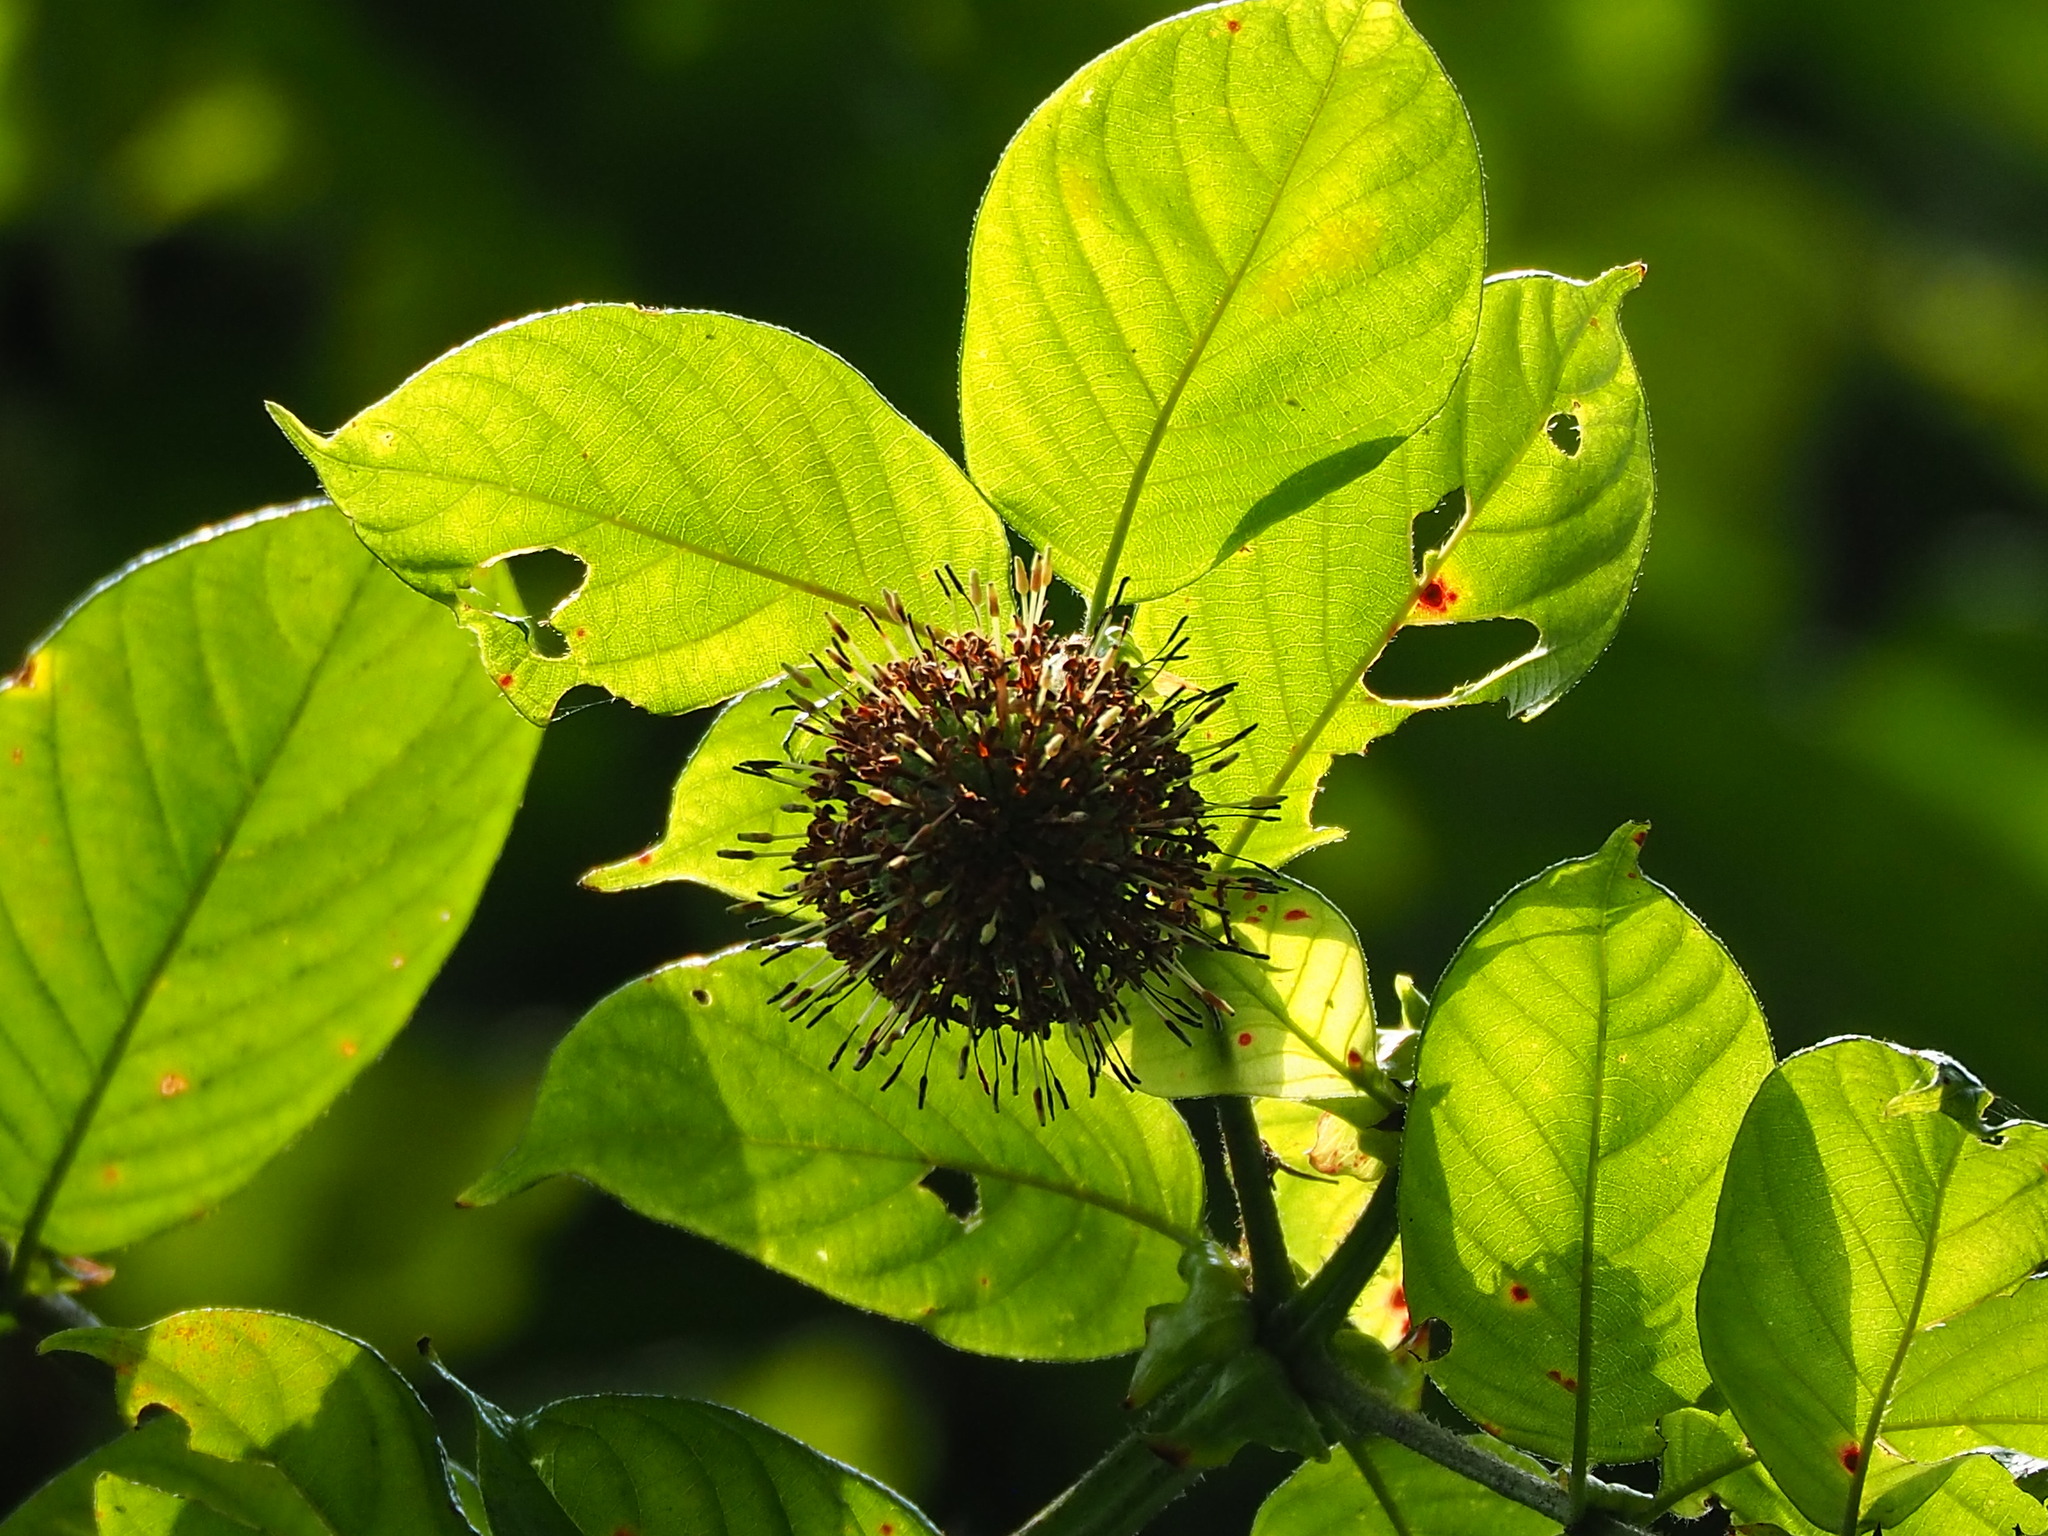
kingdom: Plantae
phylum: Tracheophyta
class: Magnoliopsida
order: Gentianales
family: Rubiaceae
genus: Uncaria
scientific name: Uncaria hirsuta
